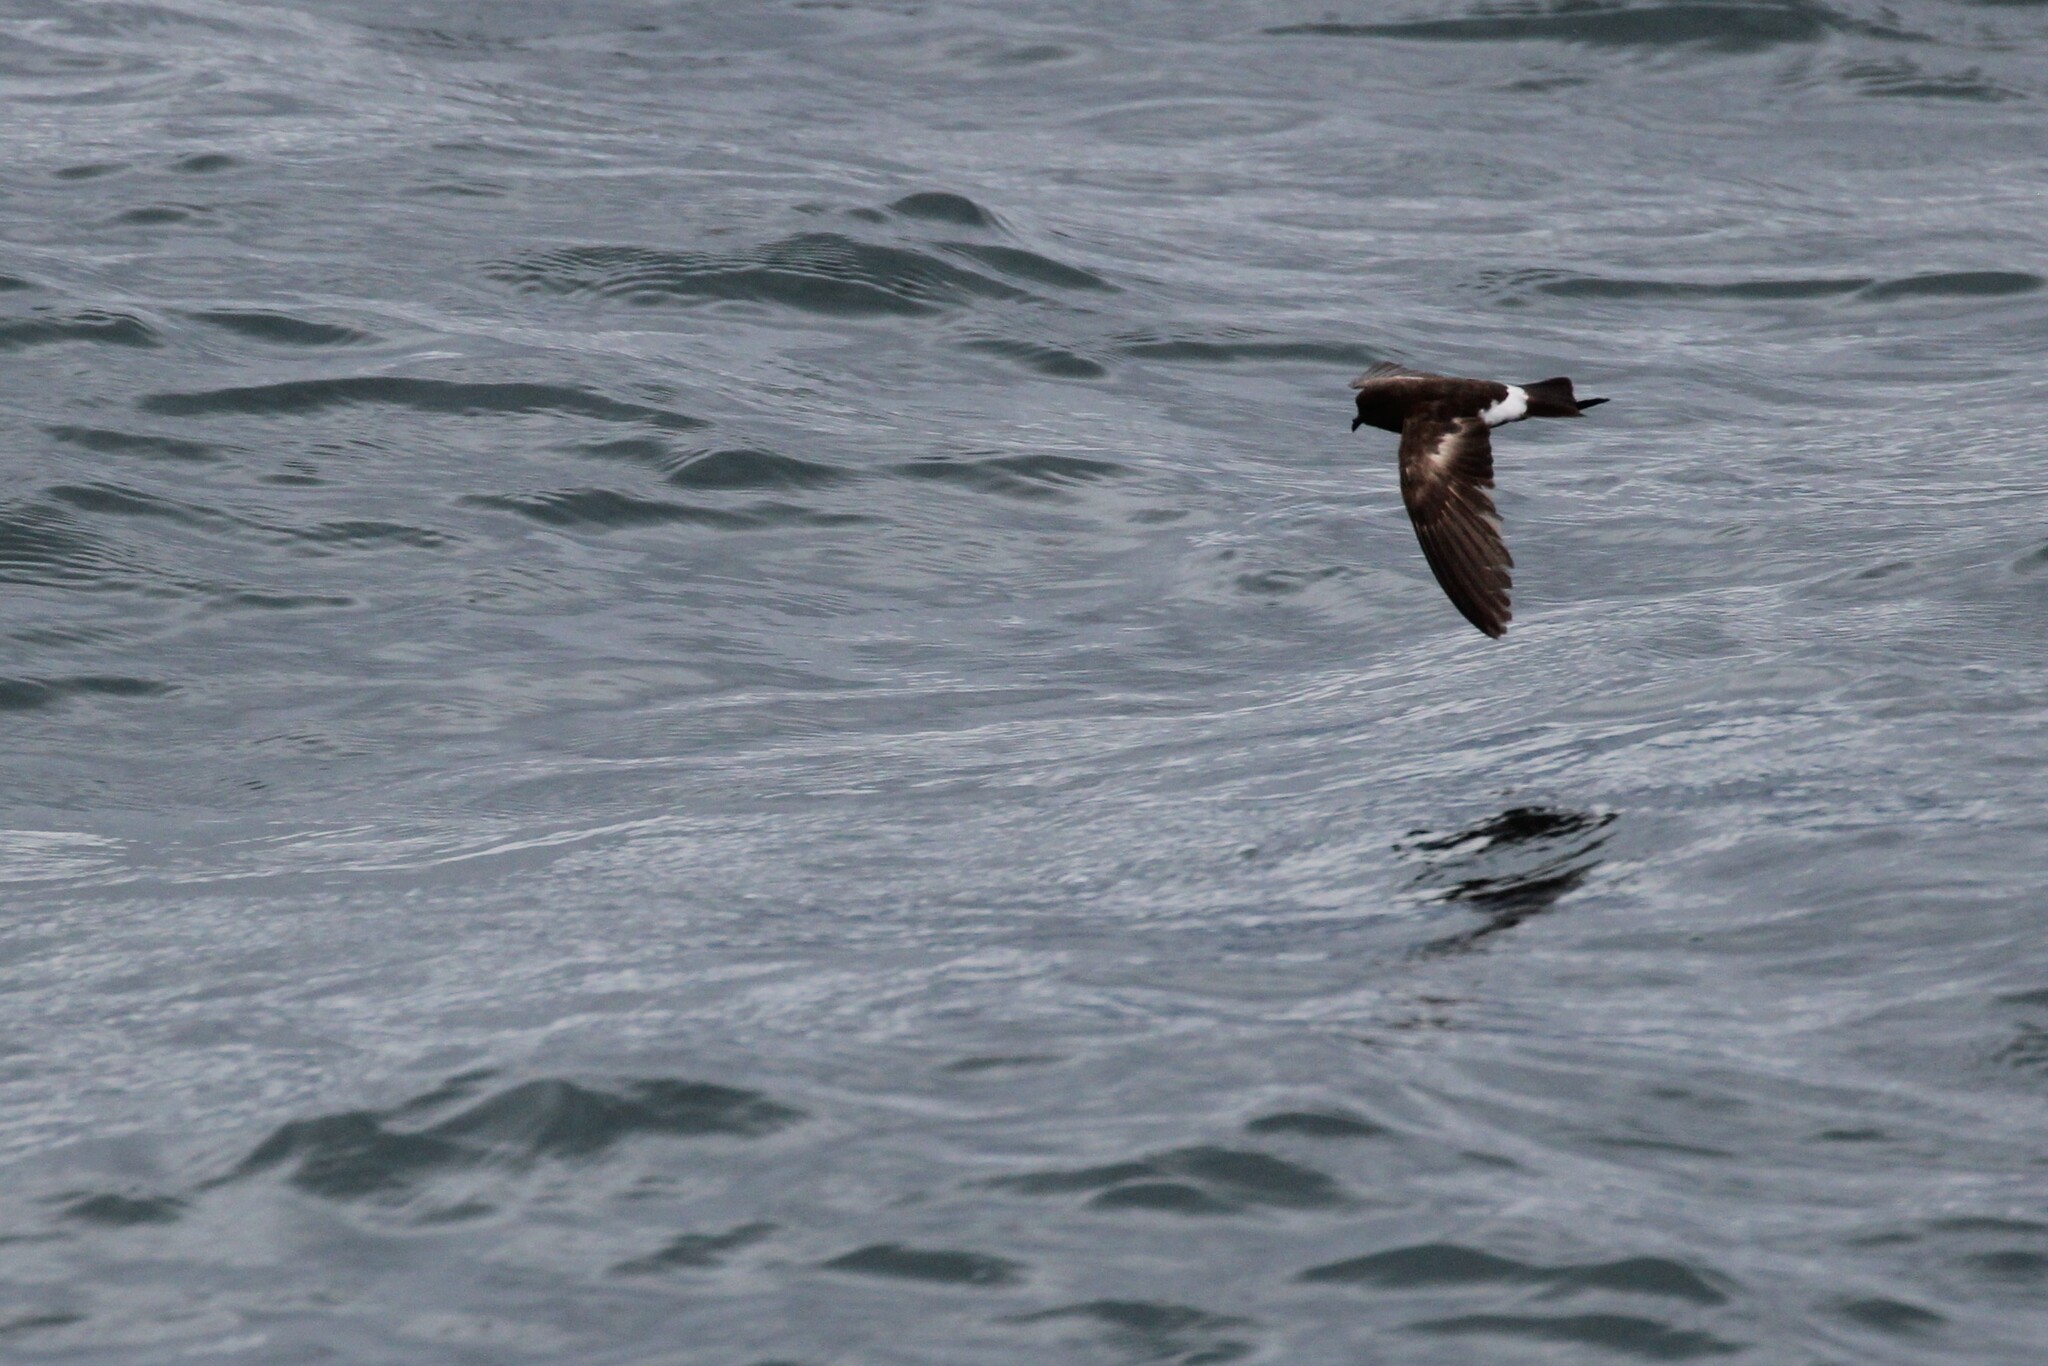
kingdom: Animalia
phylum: Chordata
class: Aves
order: Procellariiformes
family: Hydrobatidae
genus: Oceanites
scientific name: Oceanites gracilis
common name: Elliot's storm-petrel
